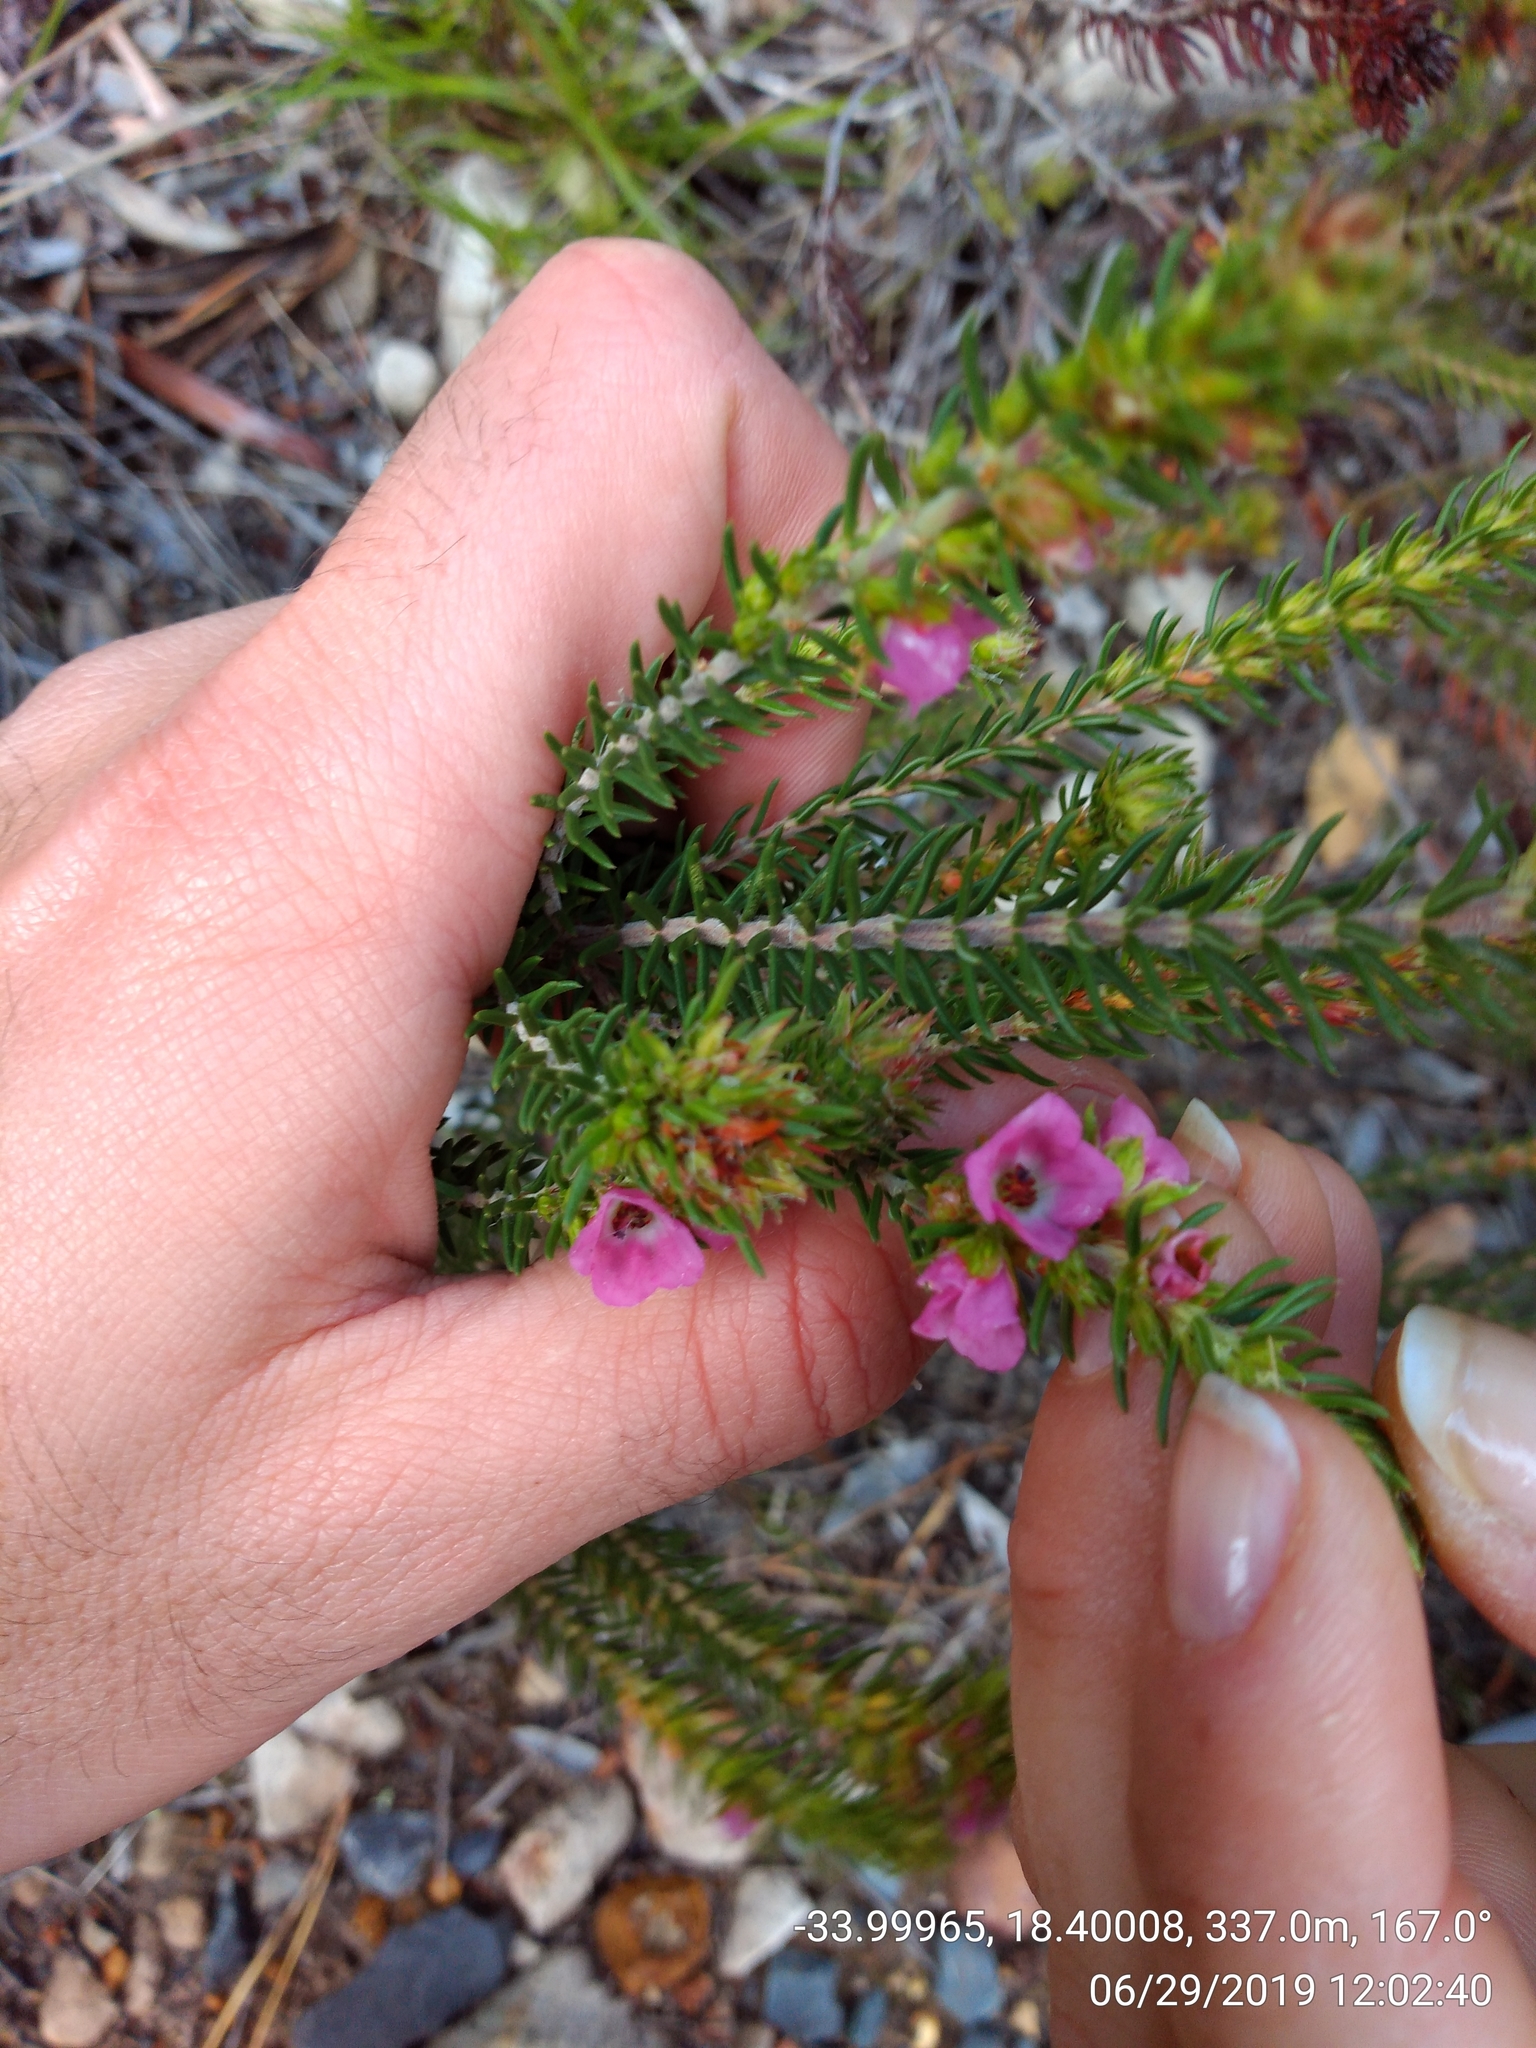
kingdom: Plantae
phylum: Tracheophyta
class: Magnoliopsida
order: Ericales
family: Ericaceae
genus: Erica
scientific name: Erica abietina
